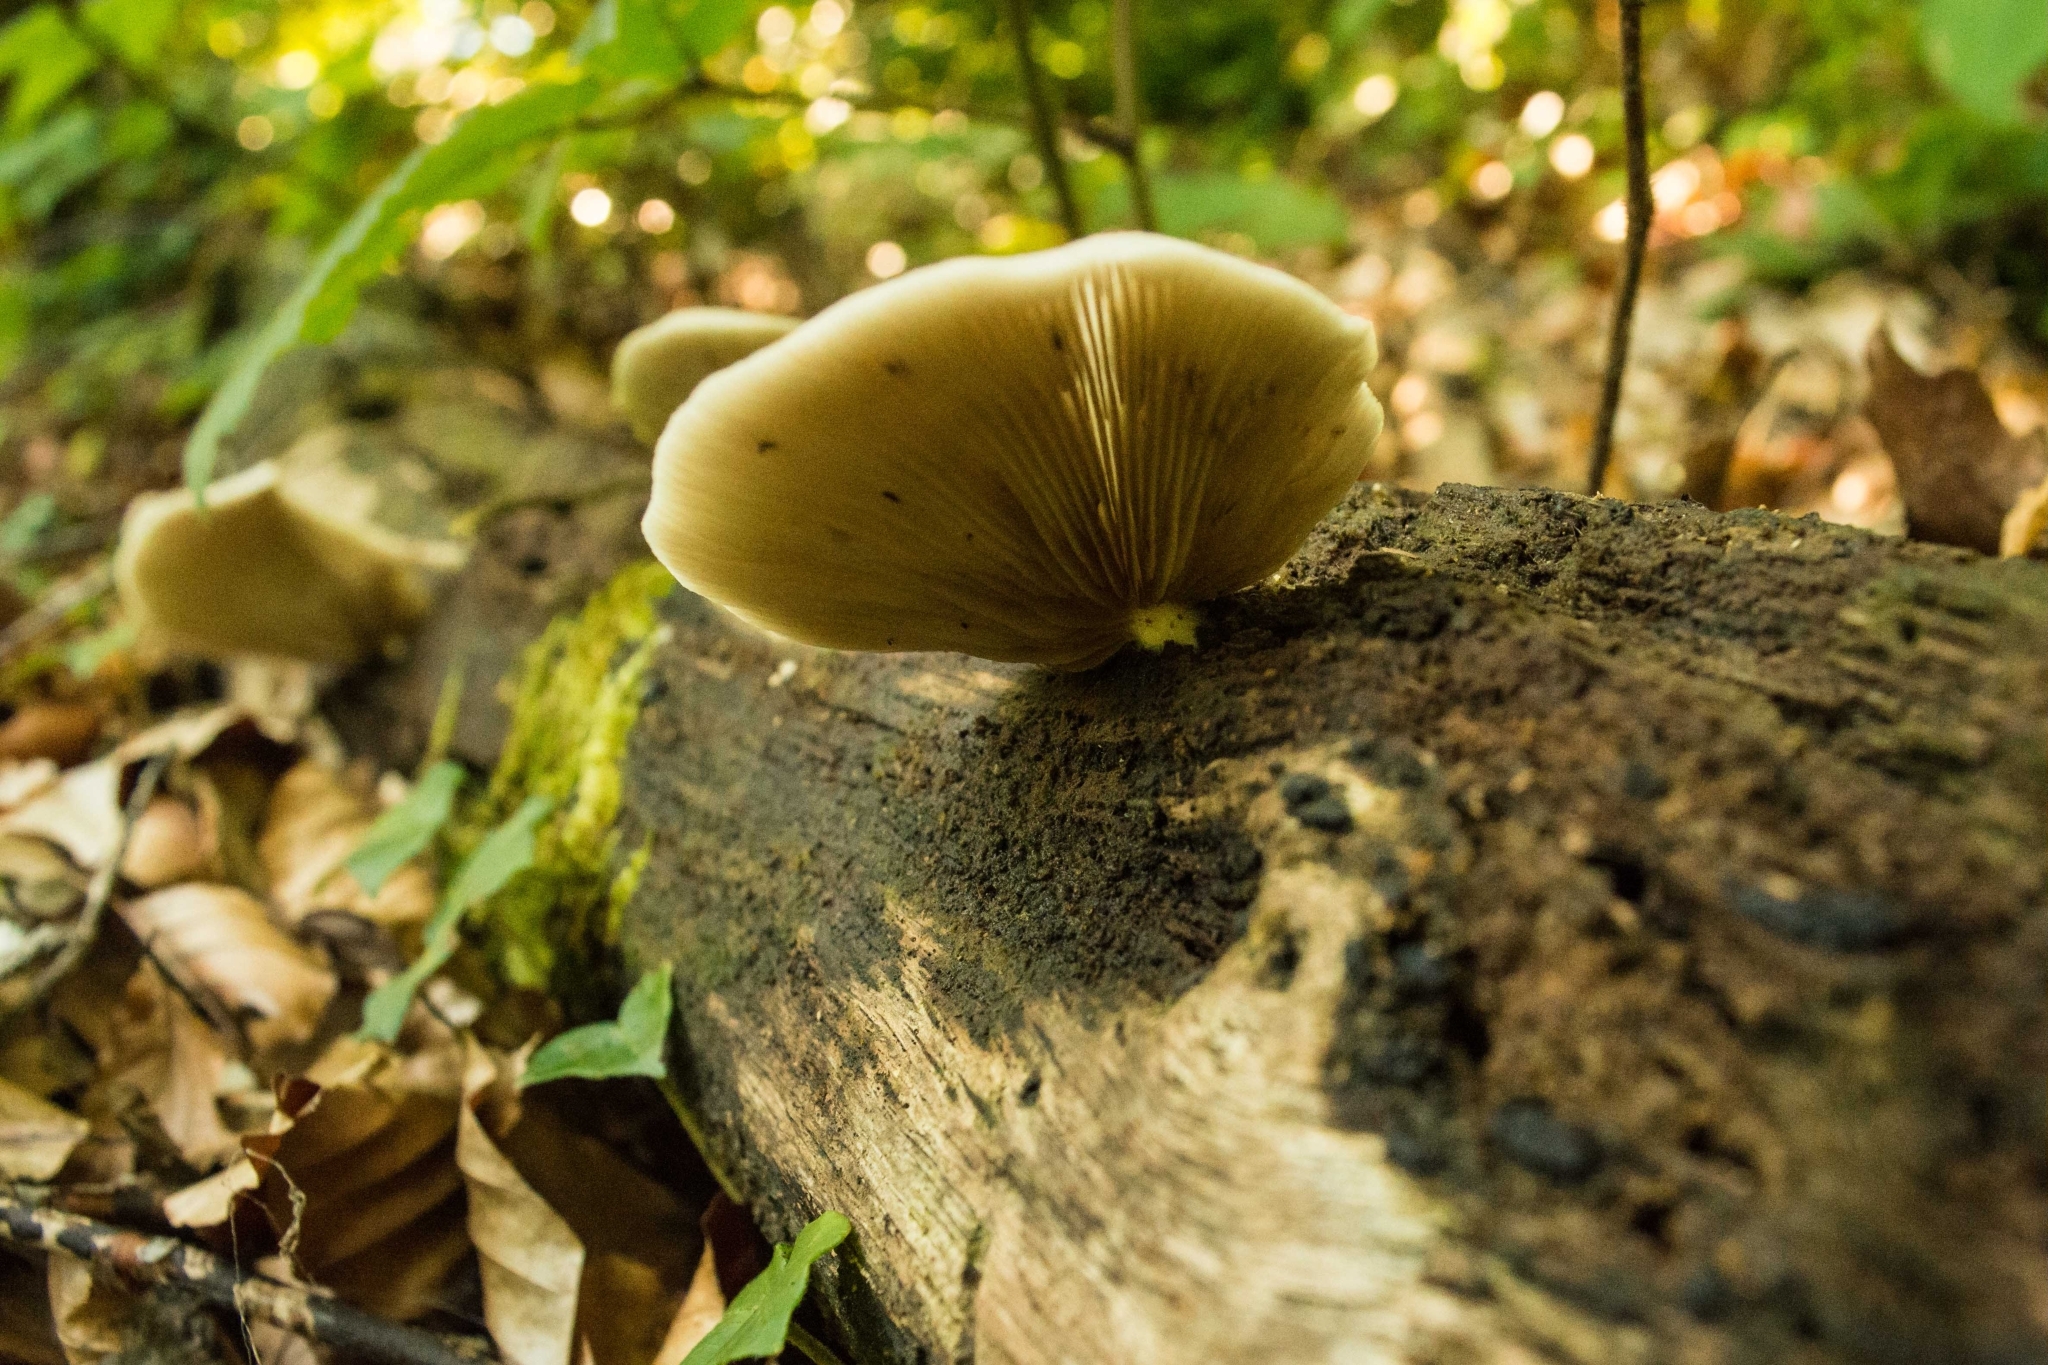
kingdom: Fungi
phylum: Basidiomycota
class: Agaricomycetes
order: Agaricales
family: Crepidotaceae
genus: Crepidotus
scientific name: Crepidotus applanatus
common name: Flat crep
